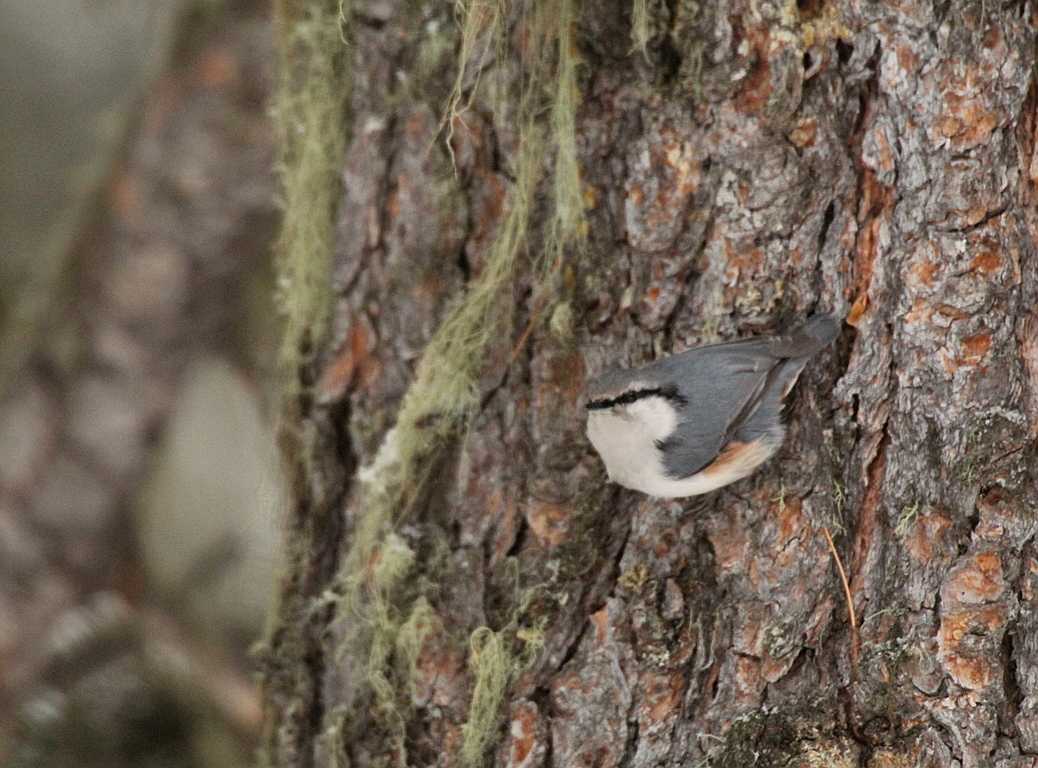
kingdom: Animalia
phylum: Chordata
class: Aves
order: Passeriformes
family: Sittidae
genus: Sitta
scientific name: Sitta europaea
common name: Eurasian nuthatch
